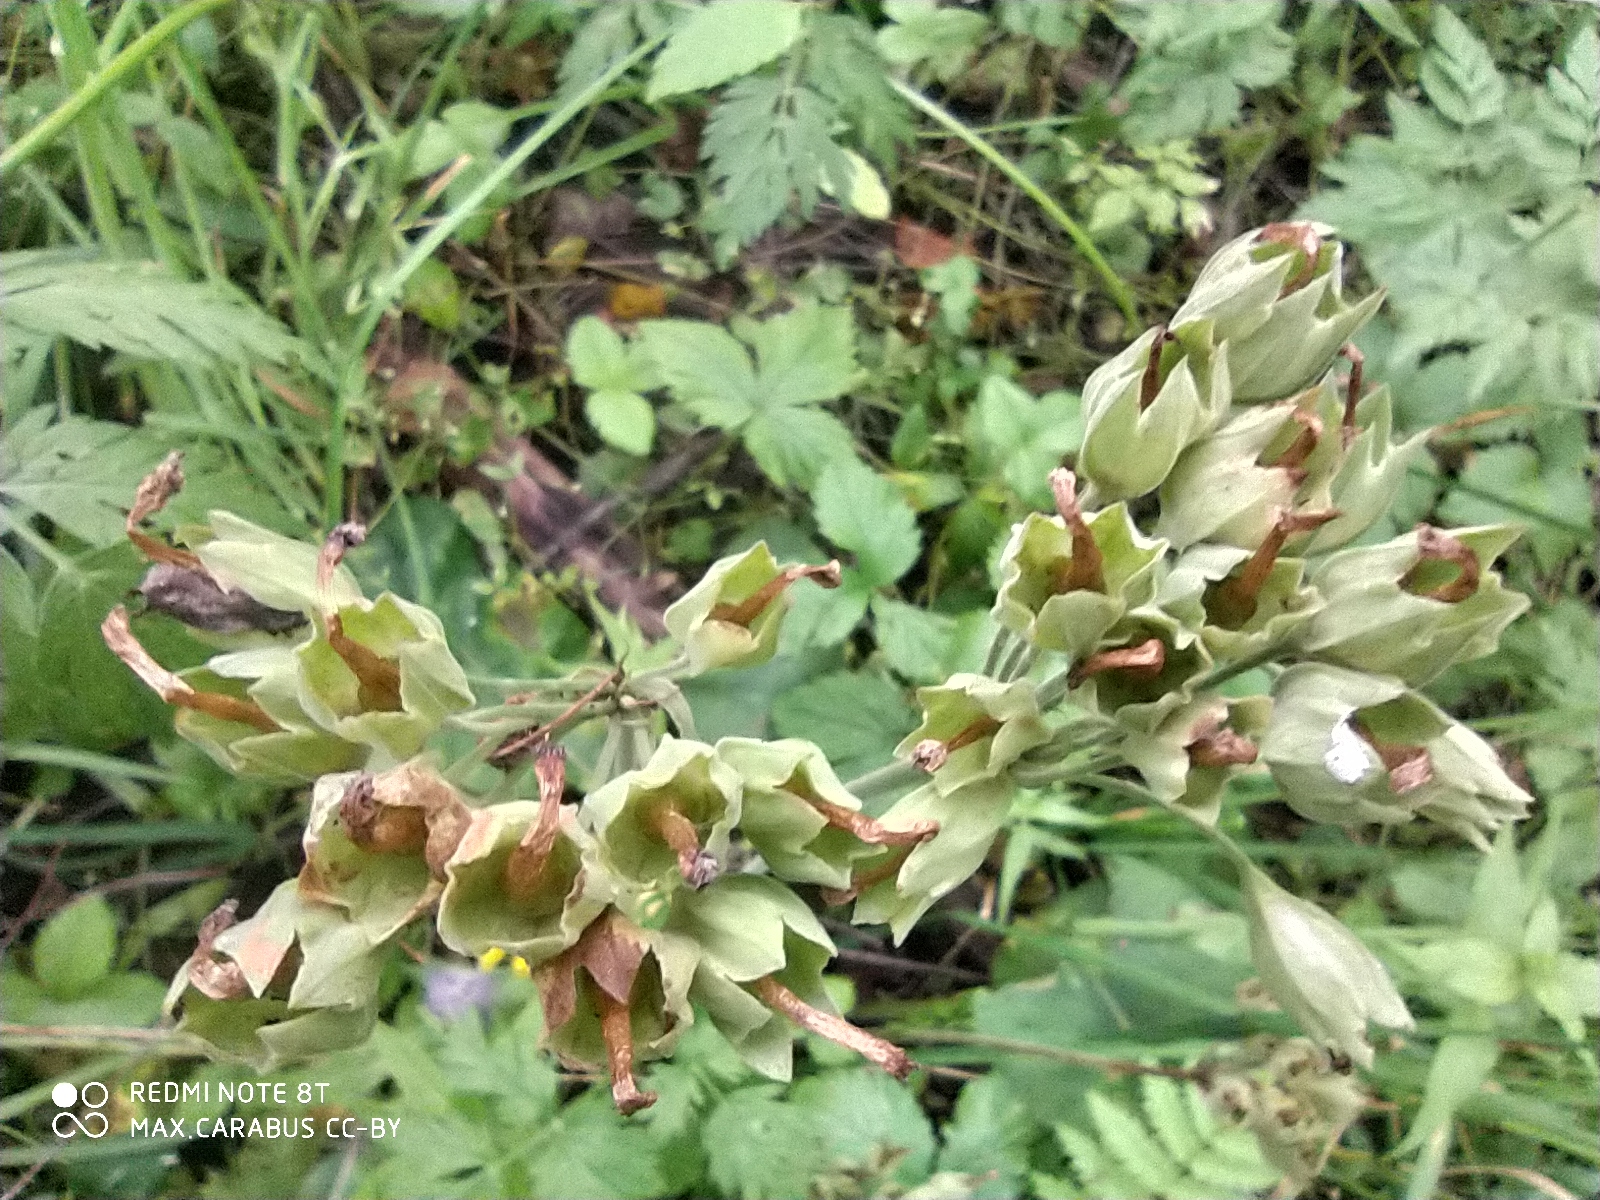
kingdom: Plantae
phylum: Tracheophyta
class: Magnoliopsida
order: Ericales
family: Primulaceae
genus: Primula
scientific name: Primula veris
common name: Cowslip
